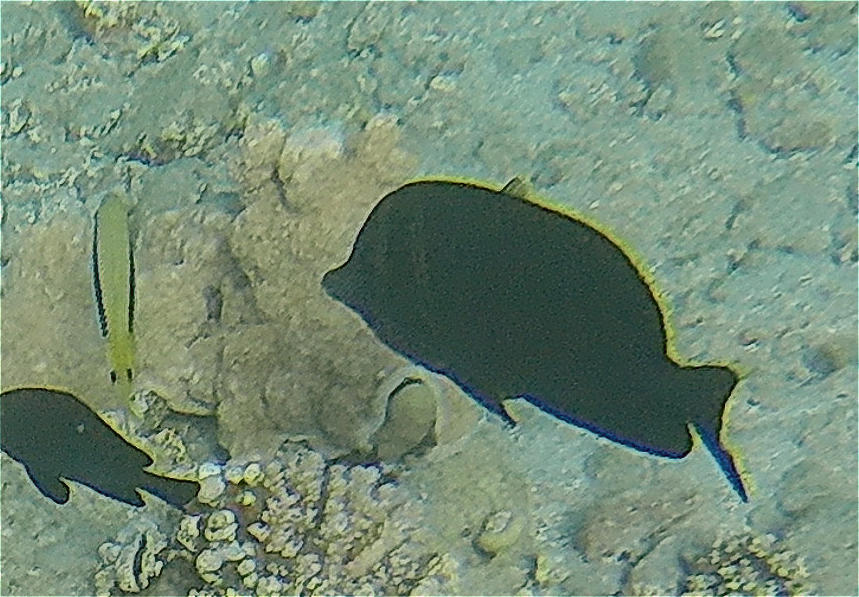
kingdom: Animalia
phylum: Chordata
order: Perciformes
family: Acanthuridae
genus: Zebrasoma
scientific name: Zebrasoma desjardinii
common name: Desjardin's sailfin tang
